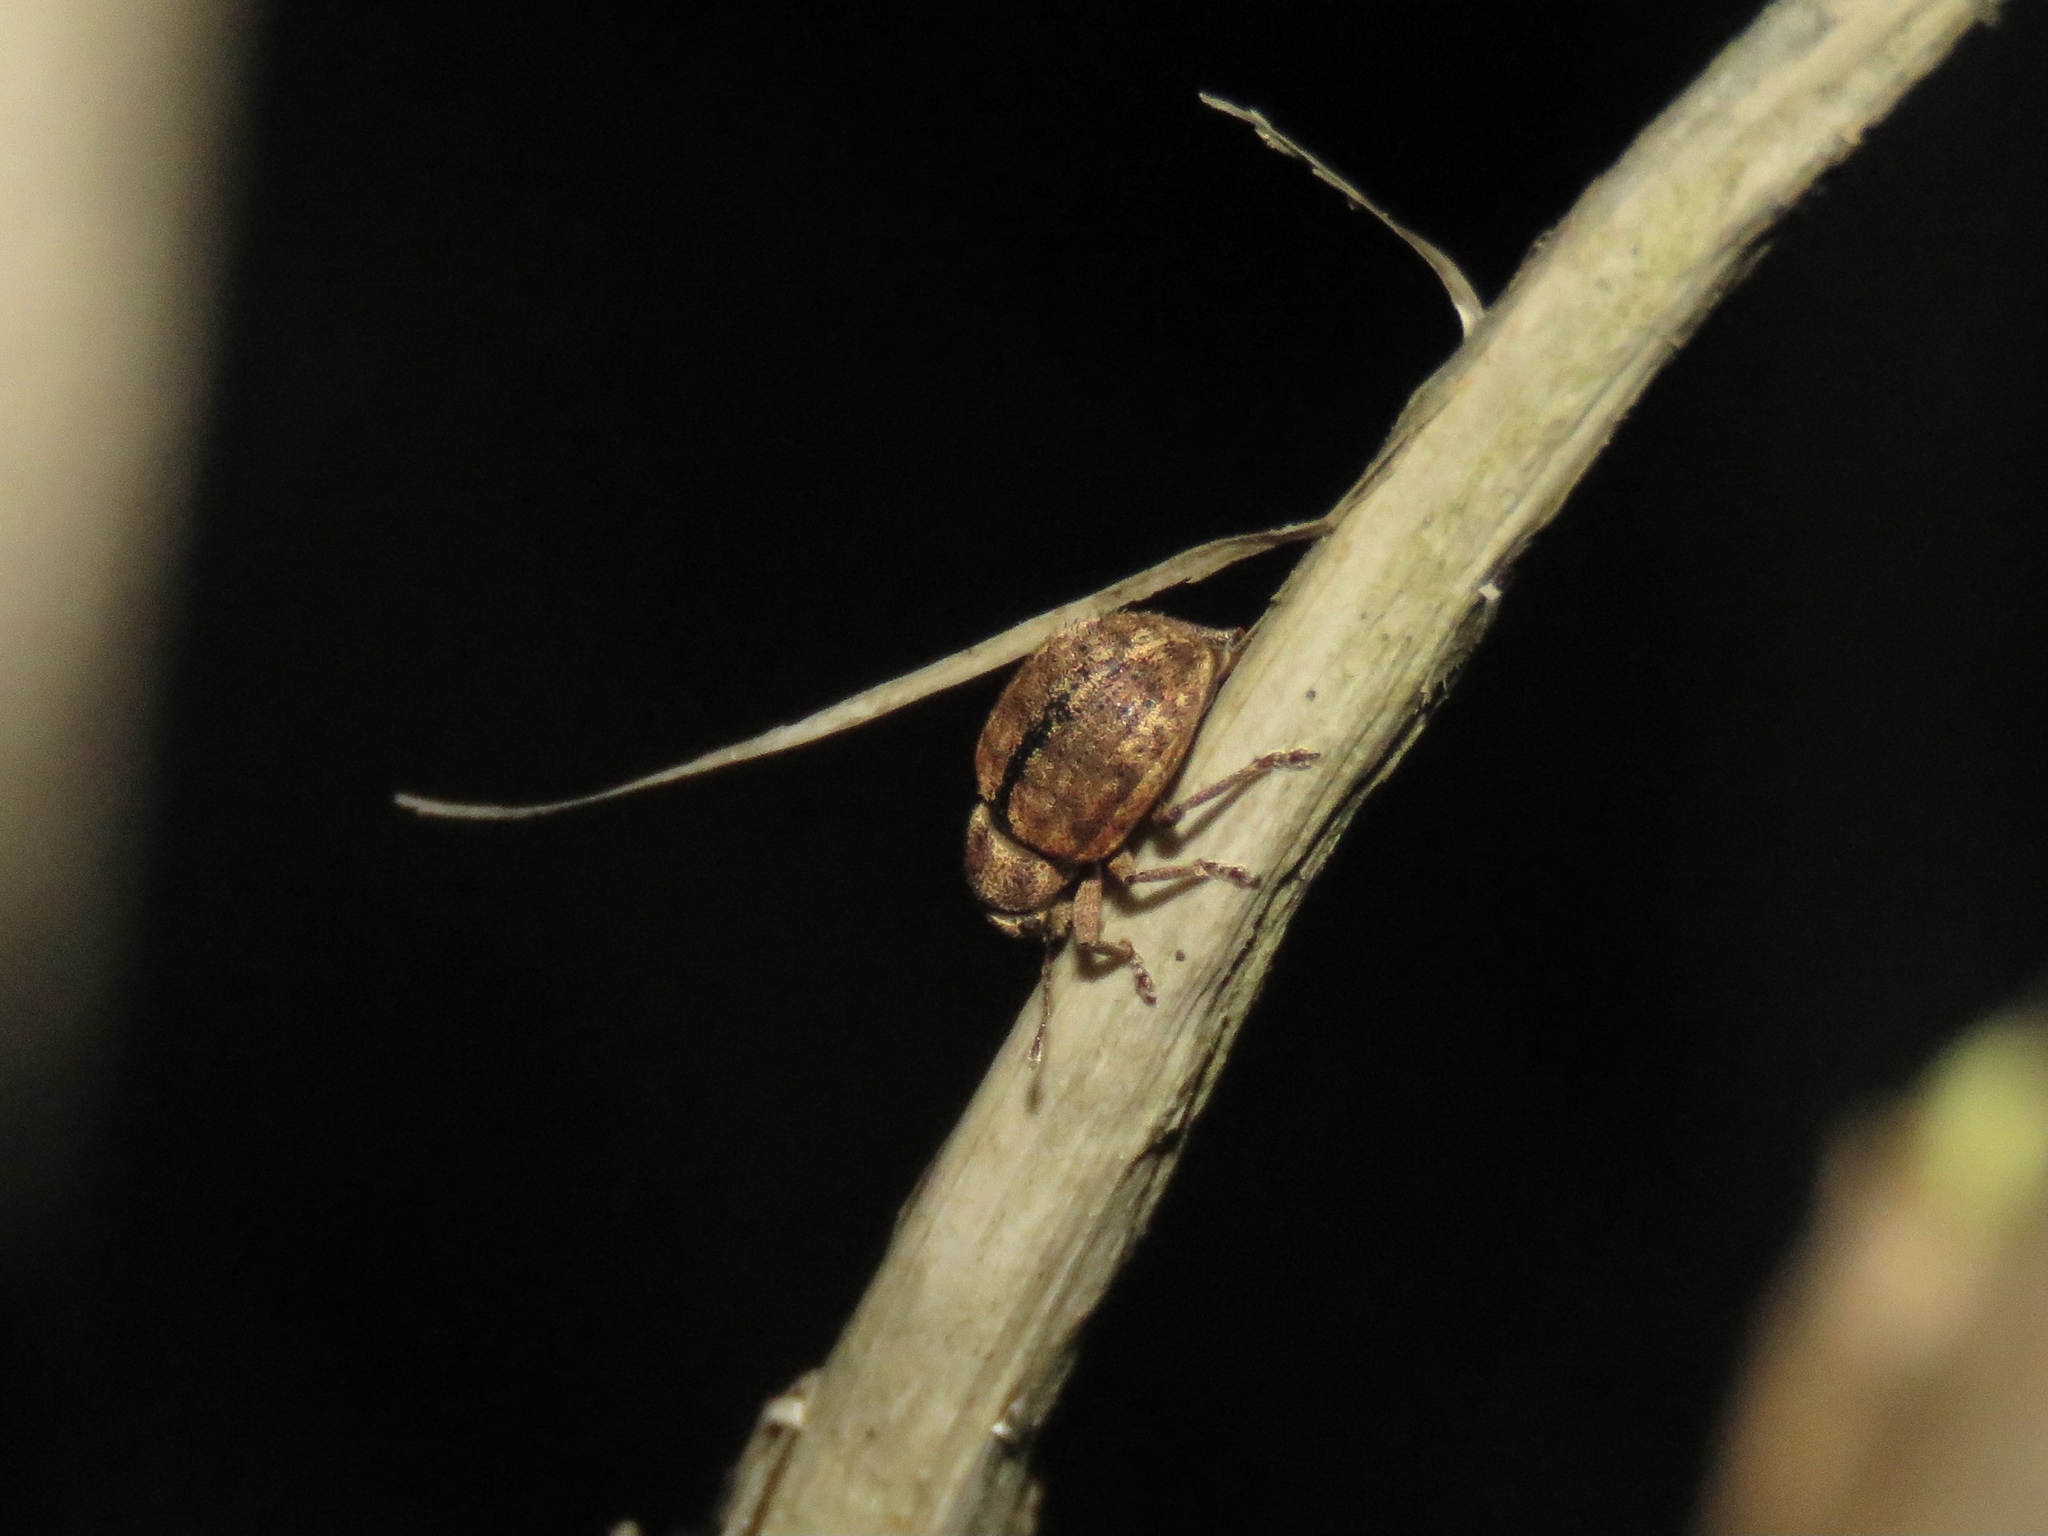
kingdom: Animalia
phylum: Arthropoda
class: Insecta
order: Coleoptera
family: Curculionidae
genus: Strophosoma
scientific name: Strophosoma melanogrammum
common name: Weevil
